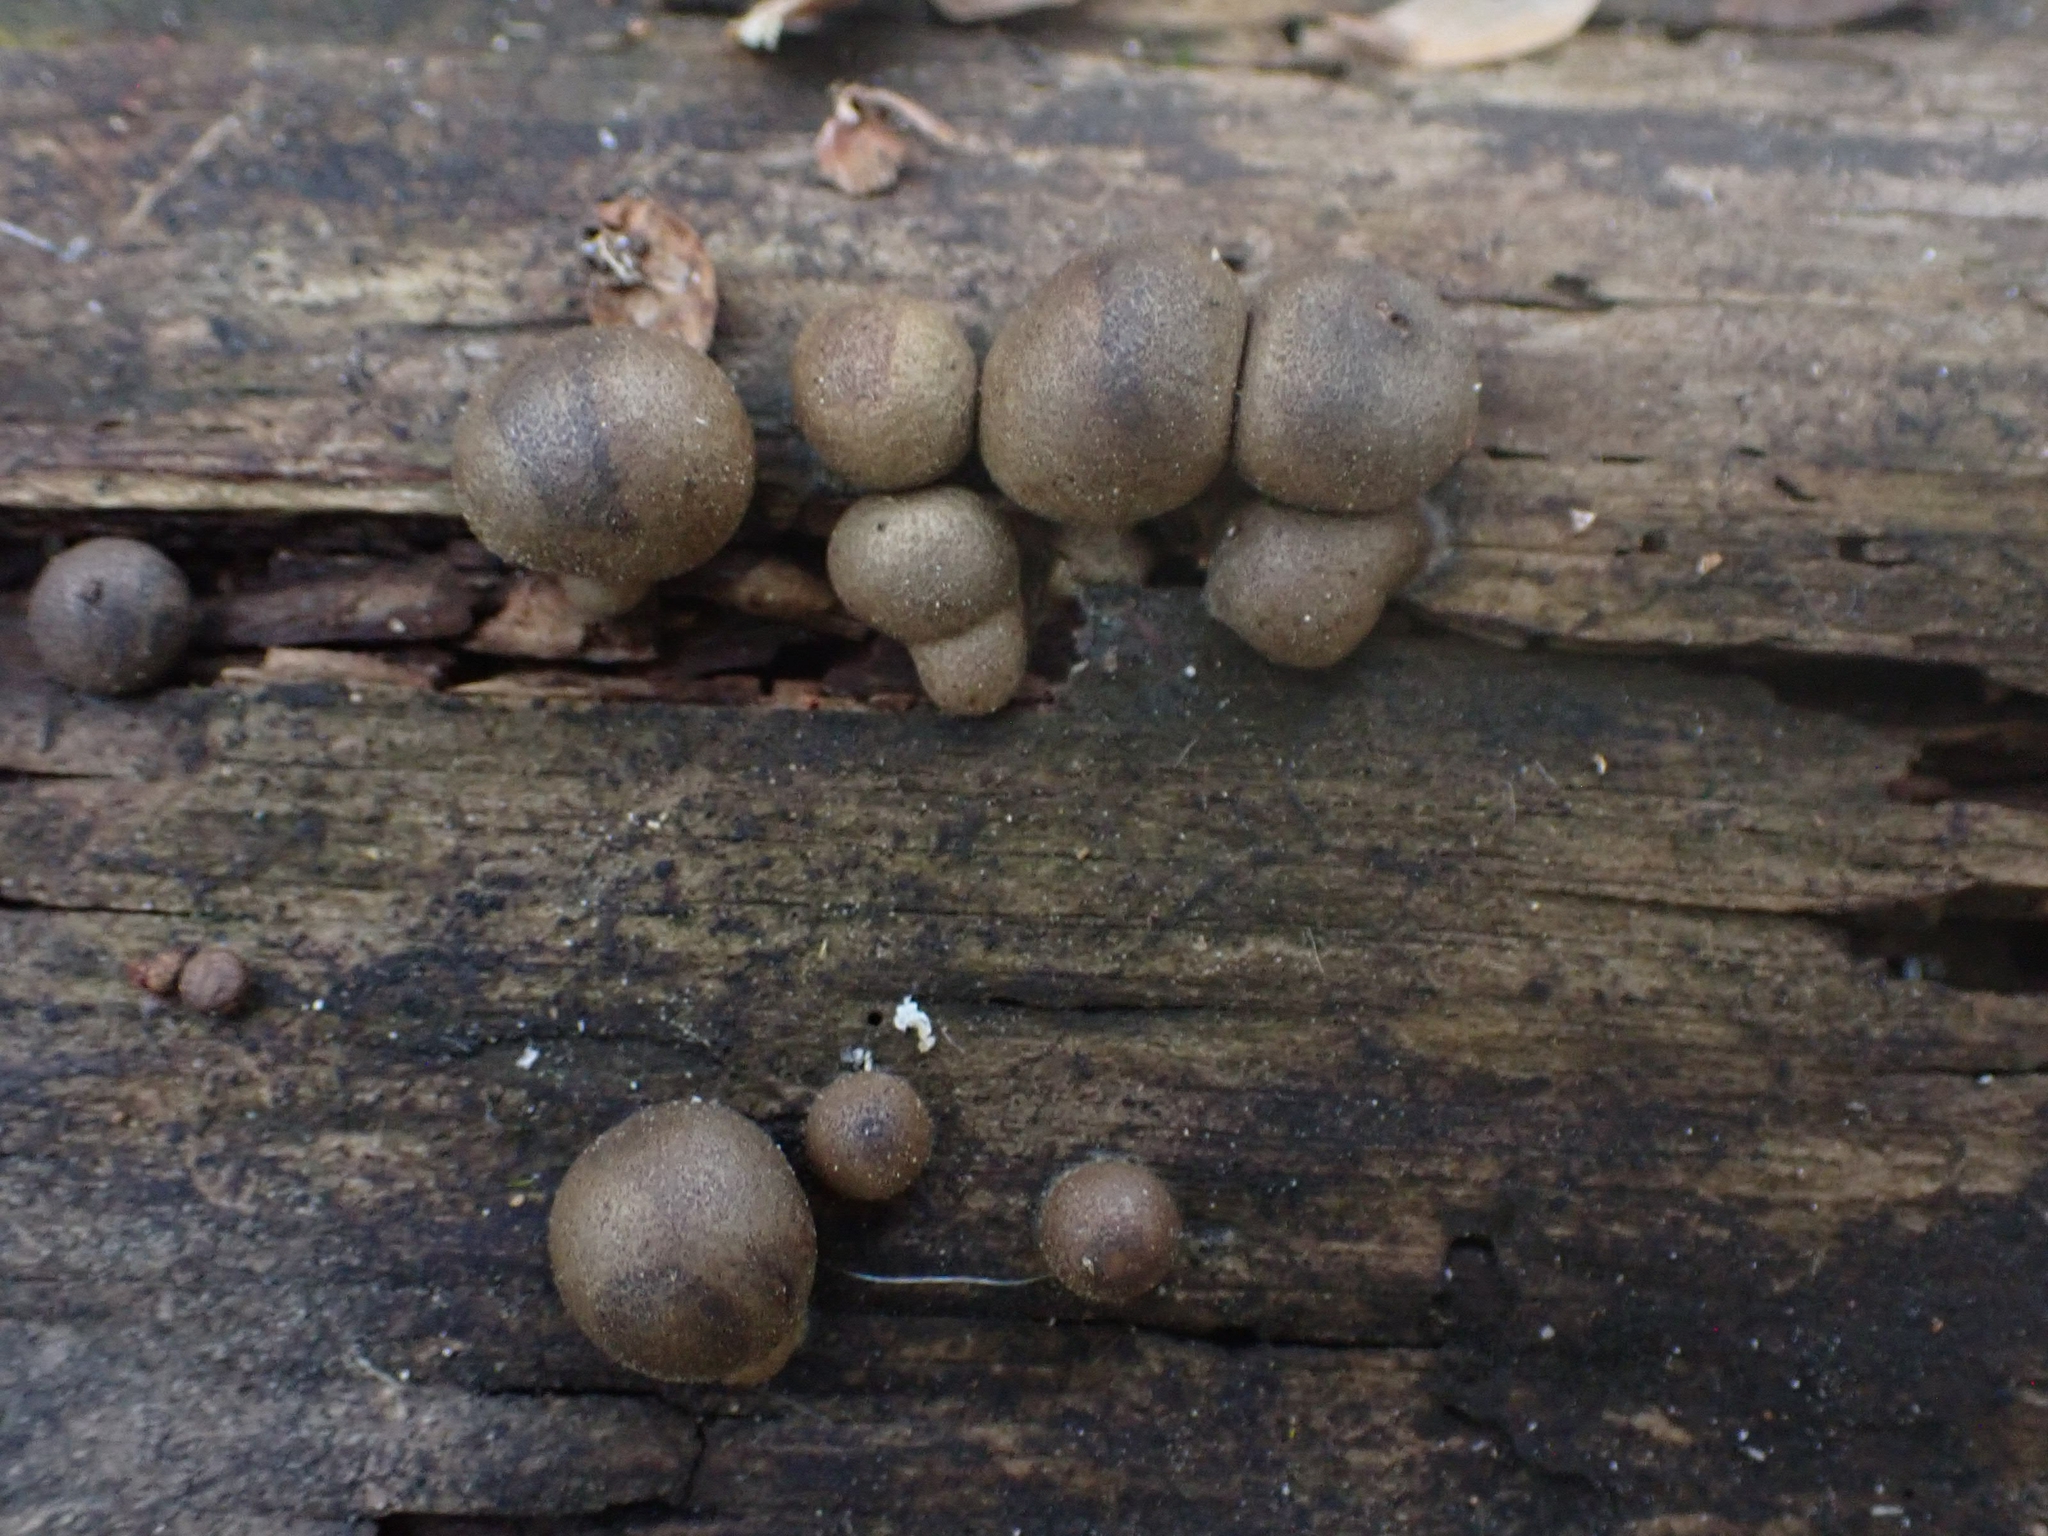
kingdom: Protozoa
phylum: Mycetozoa
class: Myxomycetes
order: Cribrariales
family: Tubiferaceae
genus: Lycogala
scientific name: Lycogala epidendrum
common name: Wolf's milk
